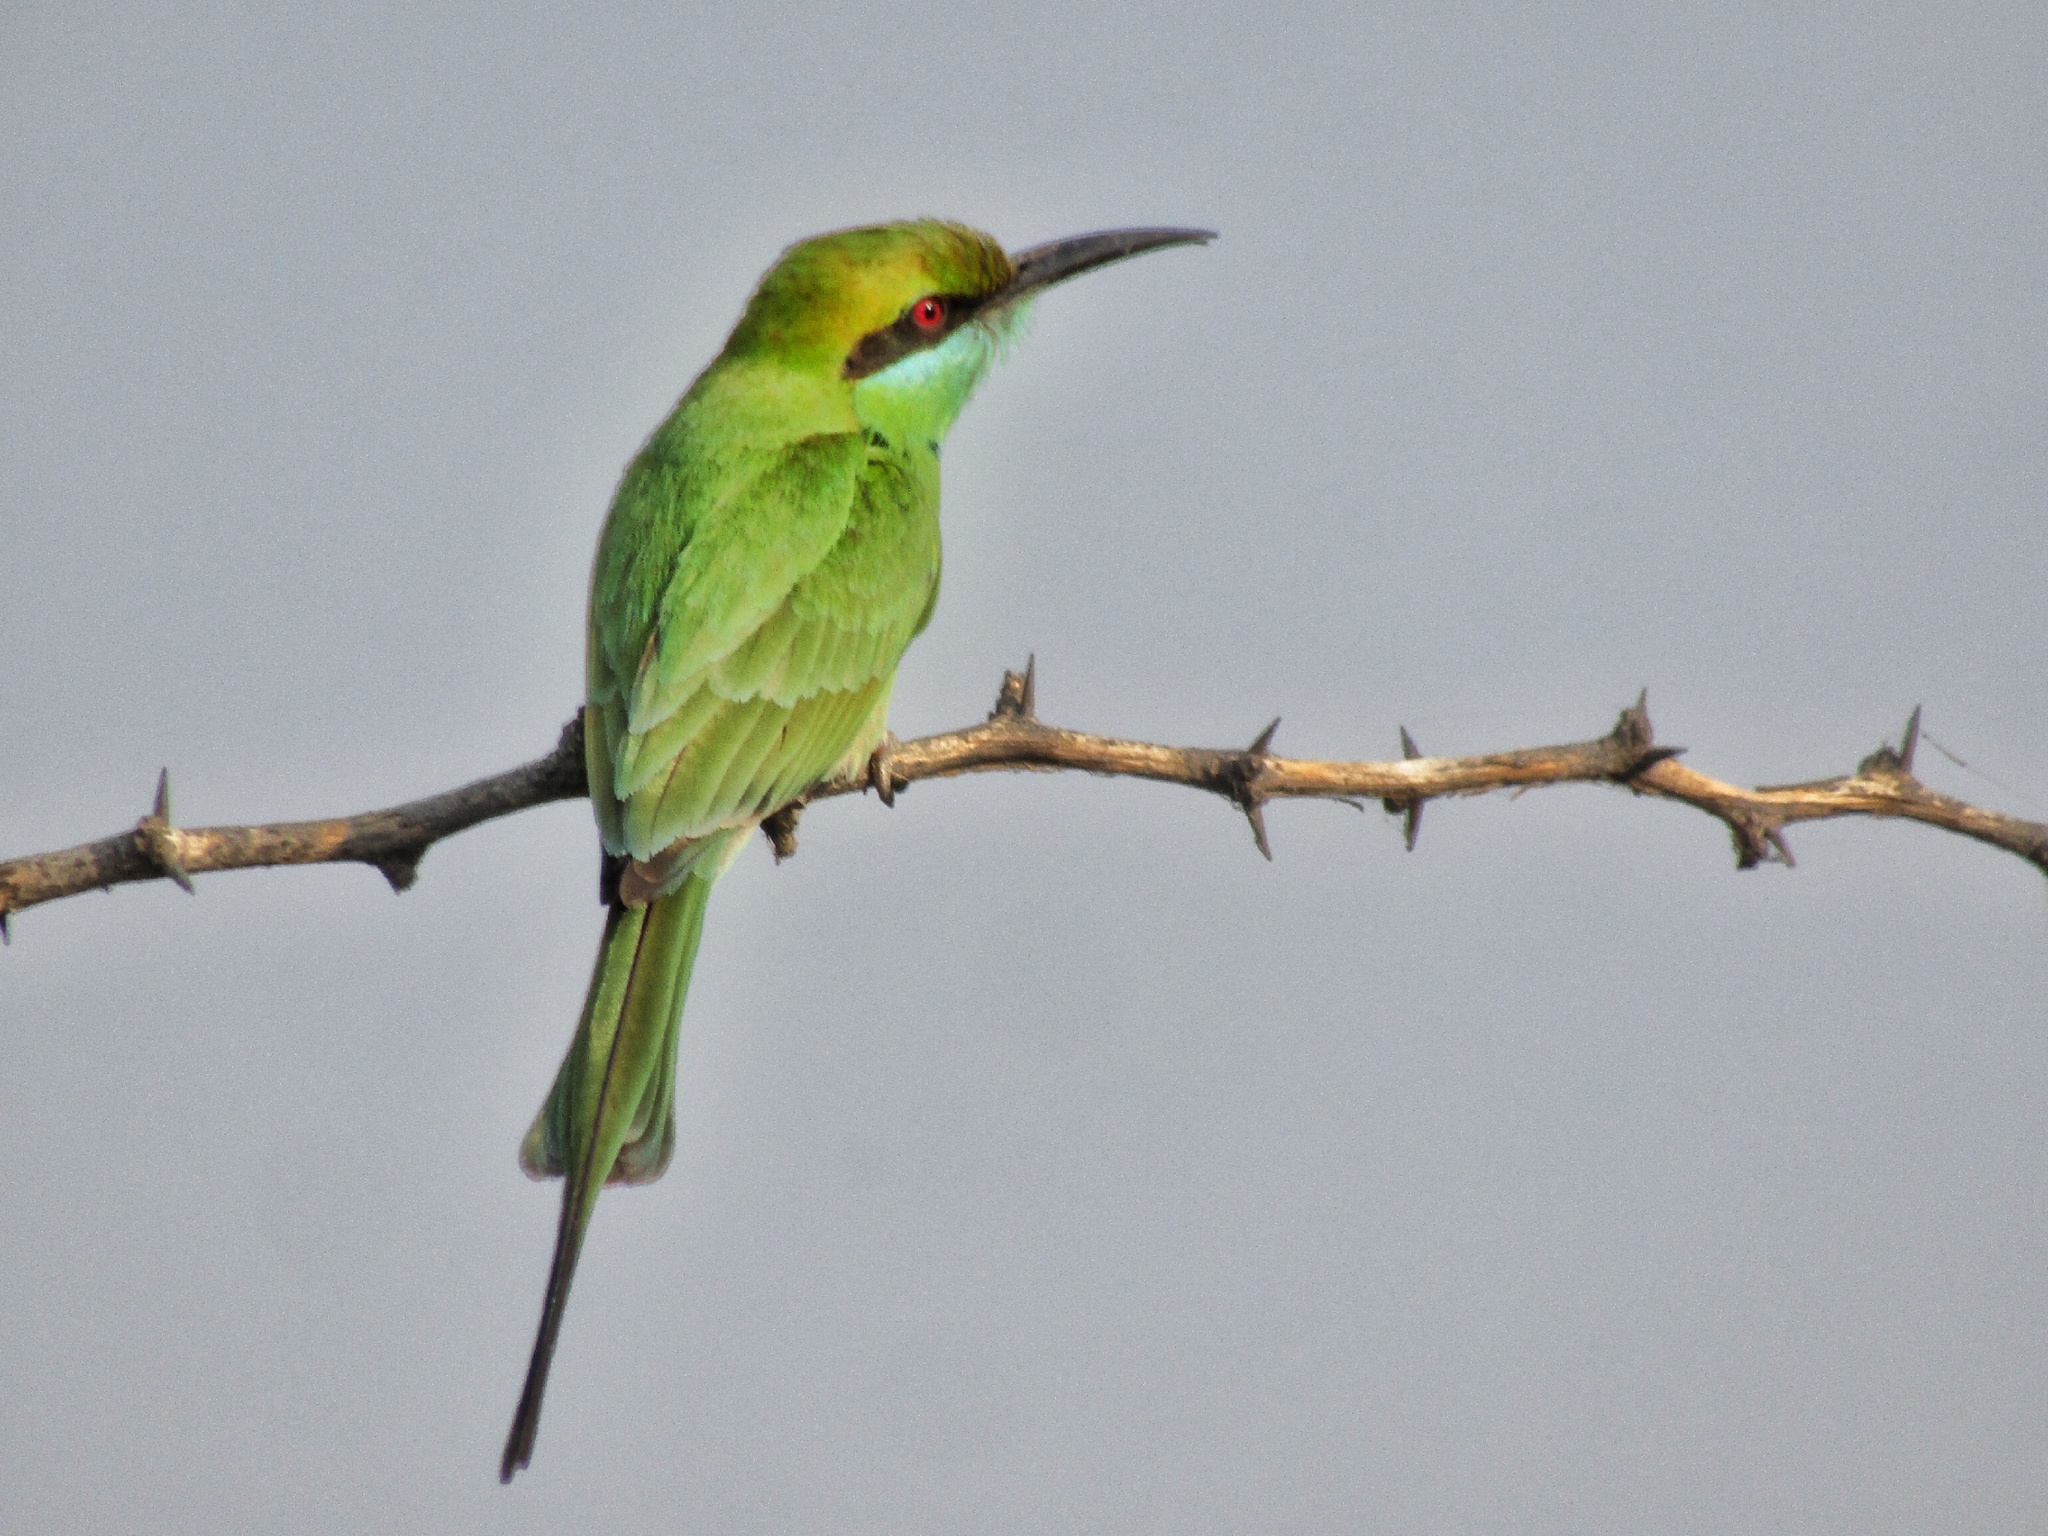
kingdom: Animalia
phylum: Chordata
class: Aves
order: Coraciiformes
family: Meropidae
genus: Merops
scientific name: Merops orientalis
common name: Green bee-eater
